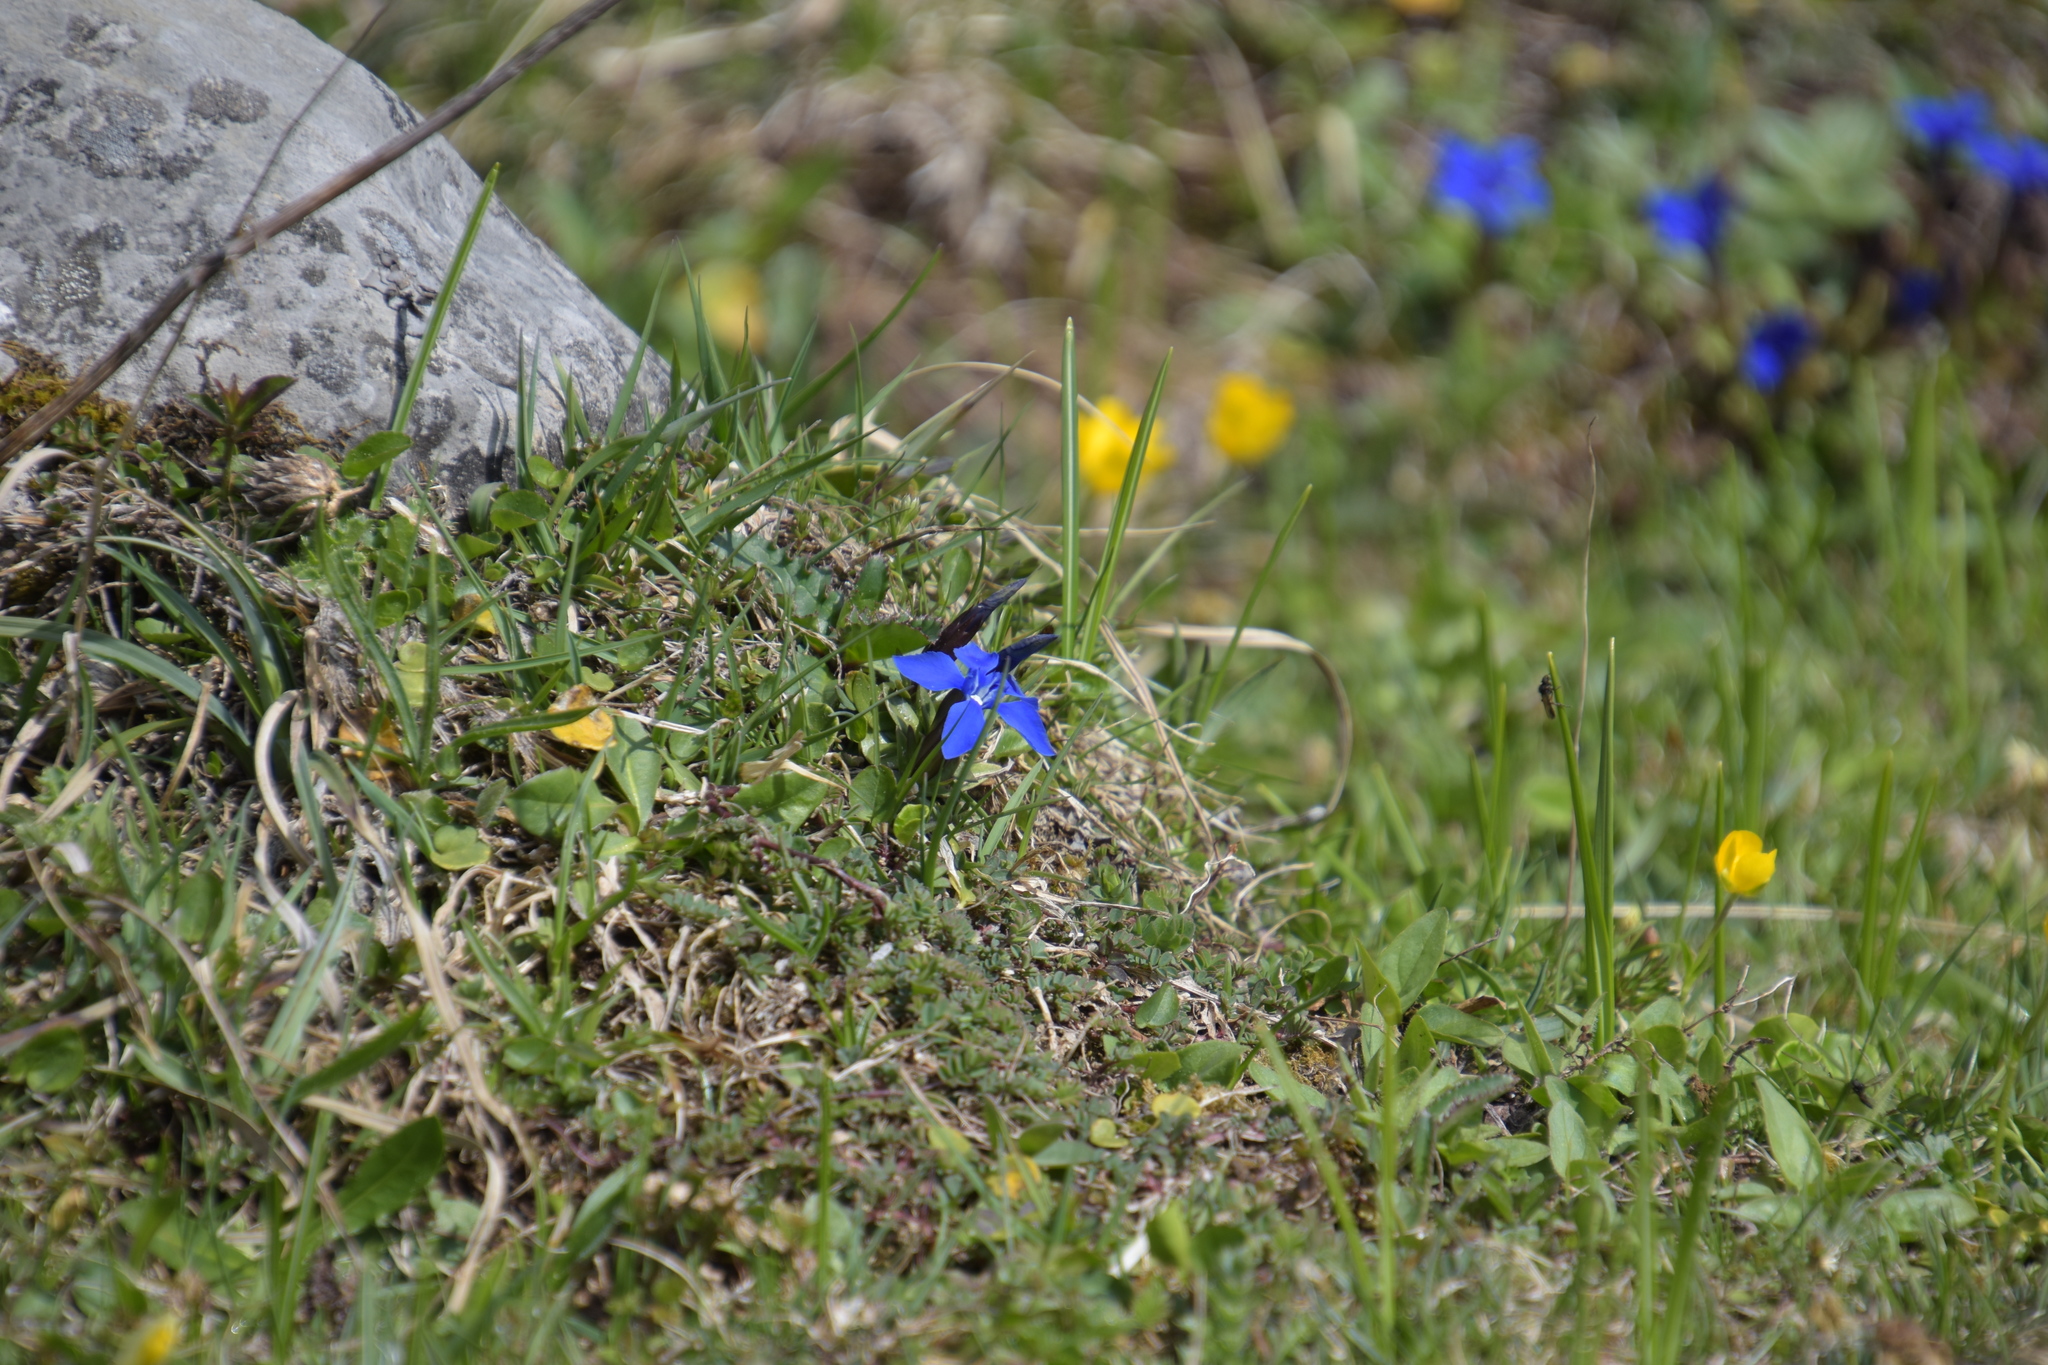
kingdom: Plantae
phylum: Tracheophyta
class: Magnoliopsida
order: Gentianales
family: Gentianaceae
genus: Gentiana
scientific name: Gentiana verna
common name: Spring gentian
